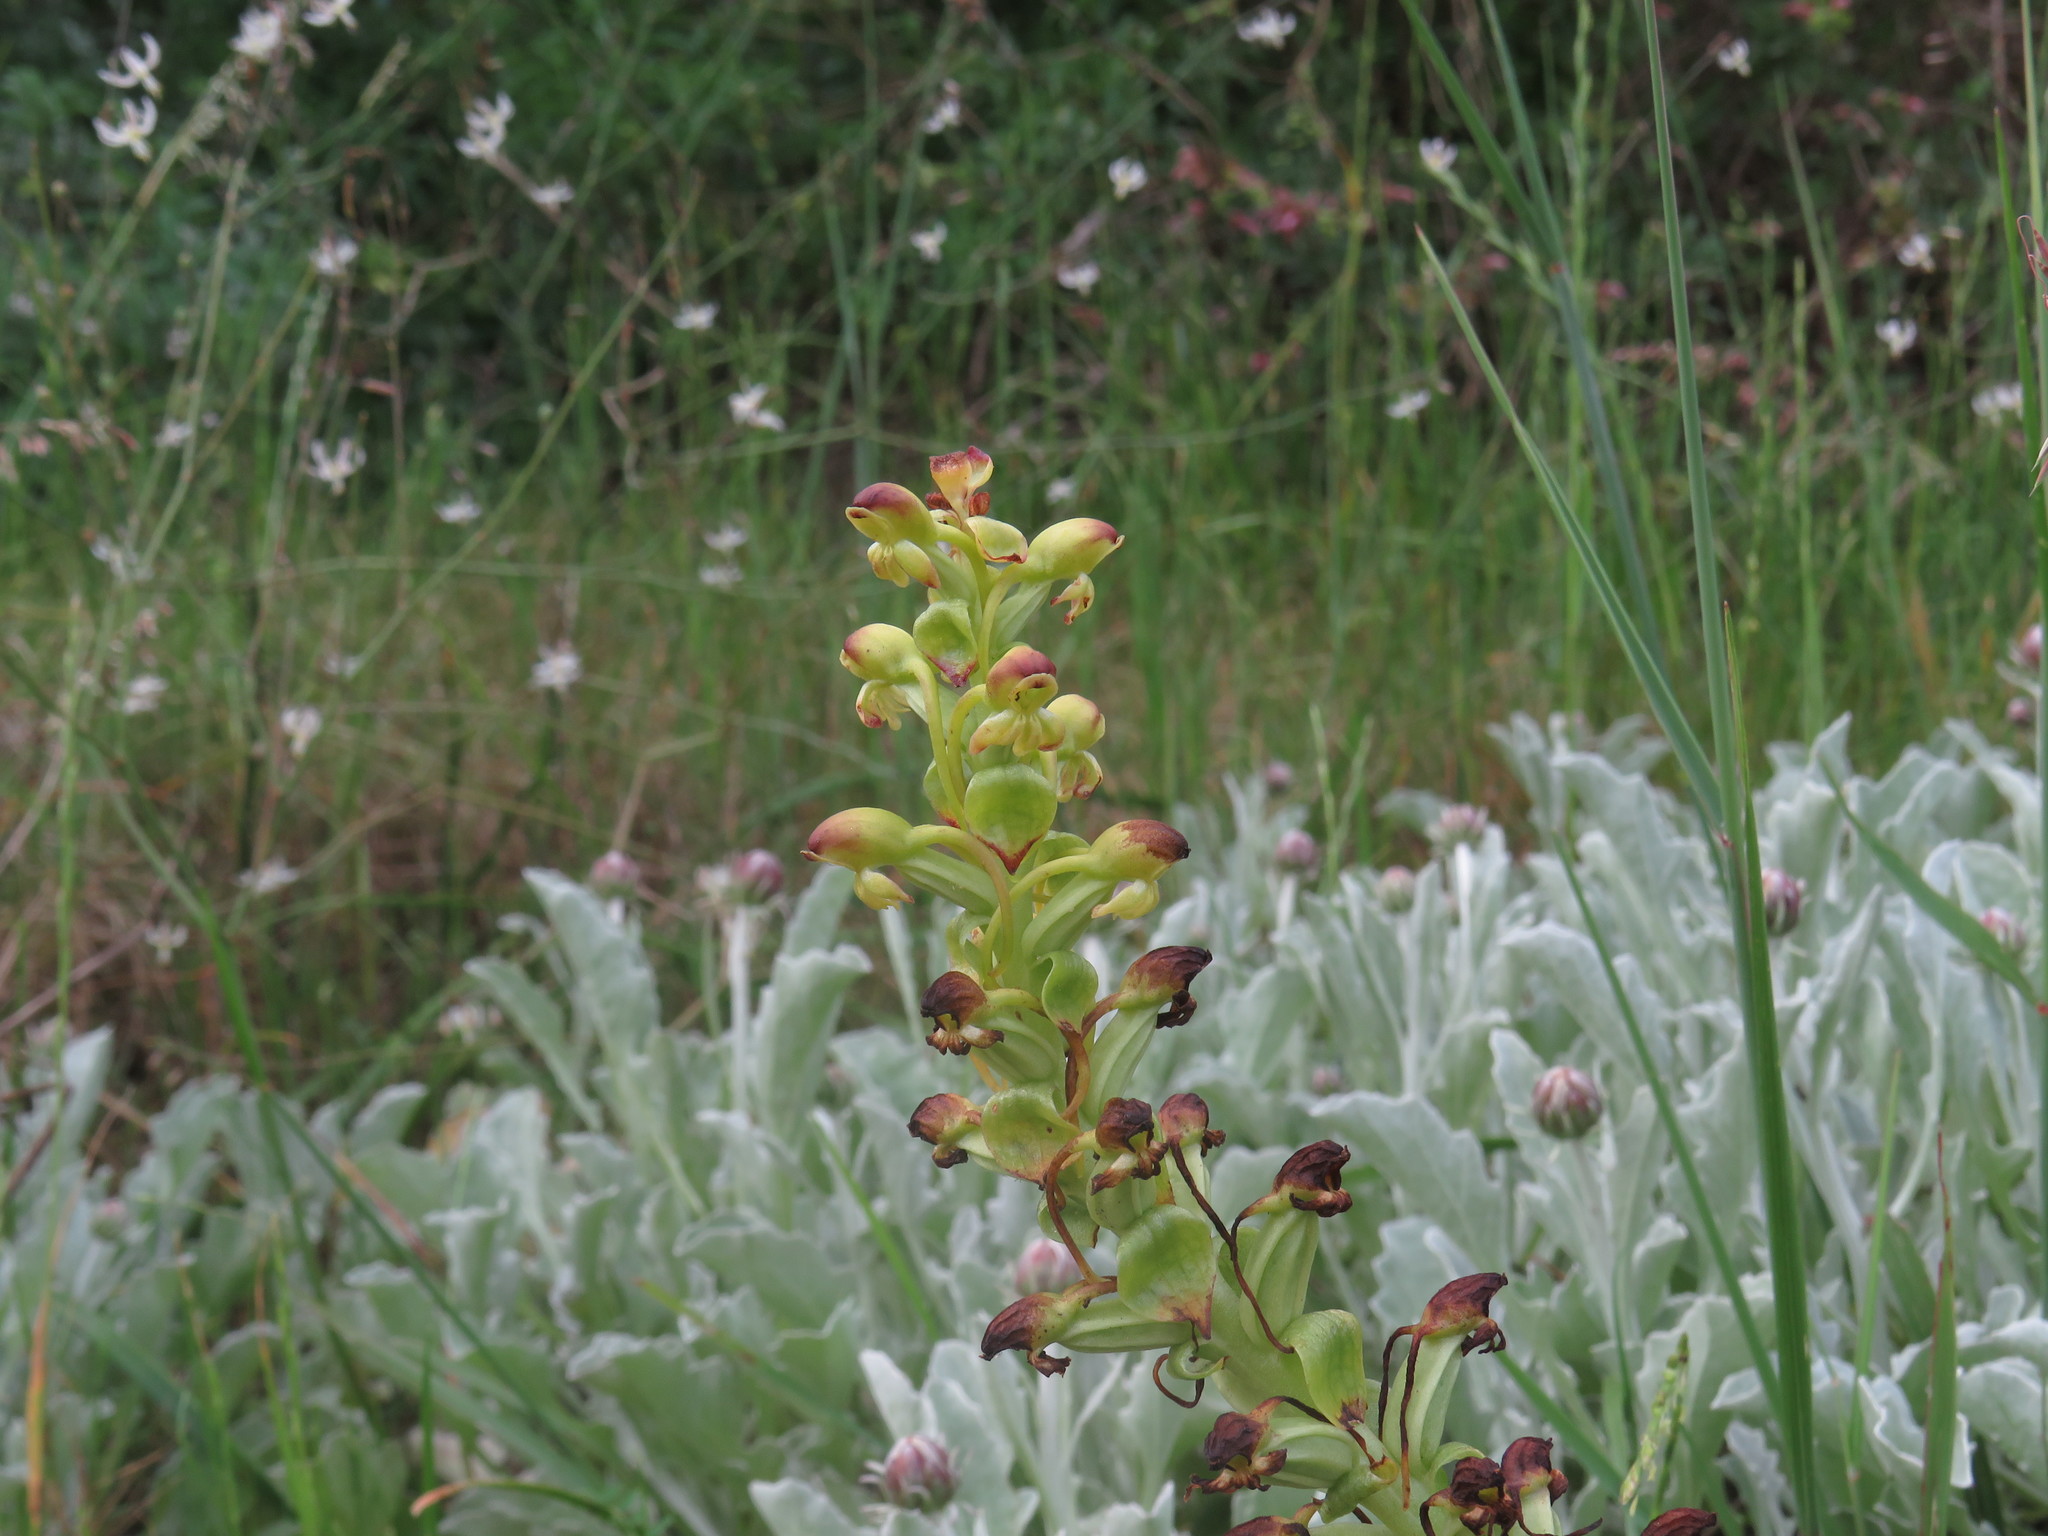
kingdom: Plantae
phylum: Tracheophyta
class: Liliopsida
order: Asparagales
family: Orchidaceae
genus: Satyrium
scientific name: Satyrium odorum
